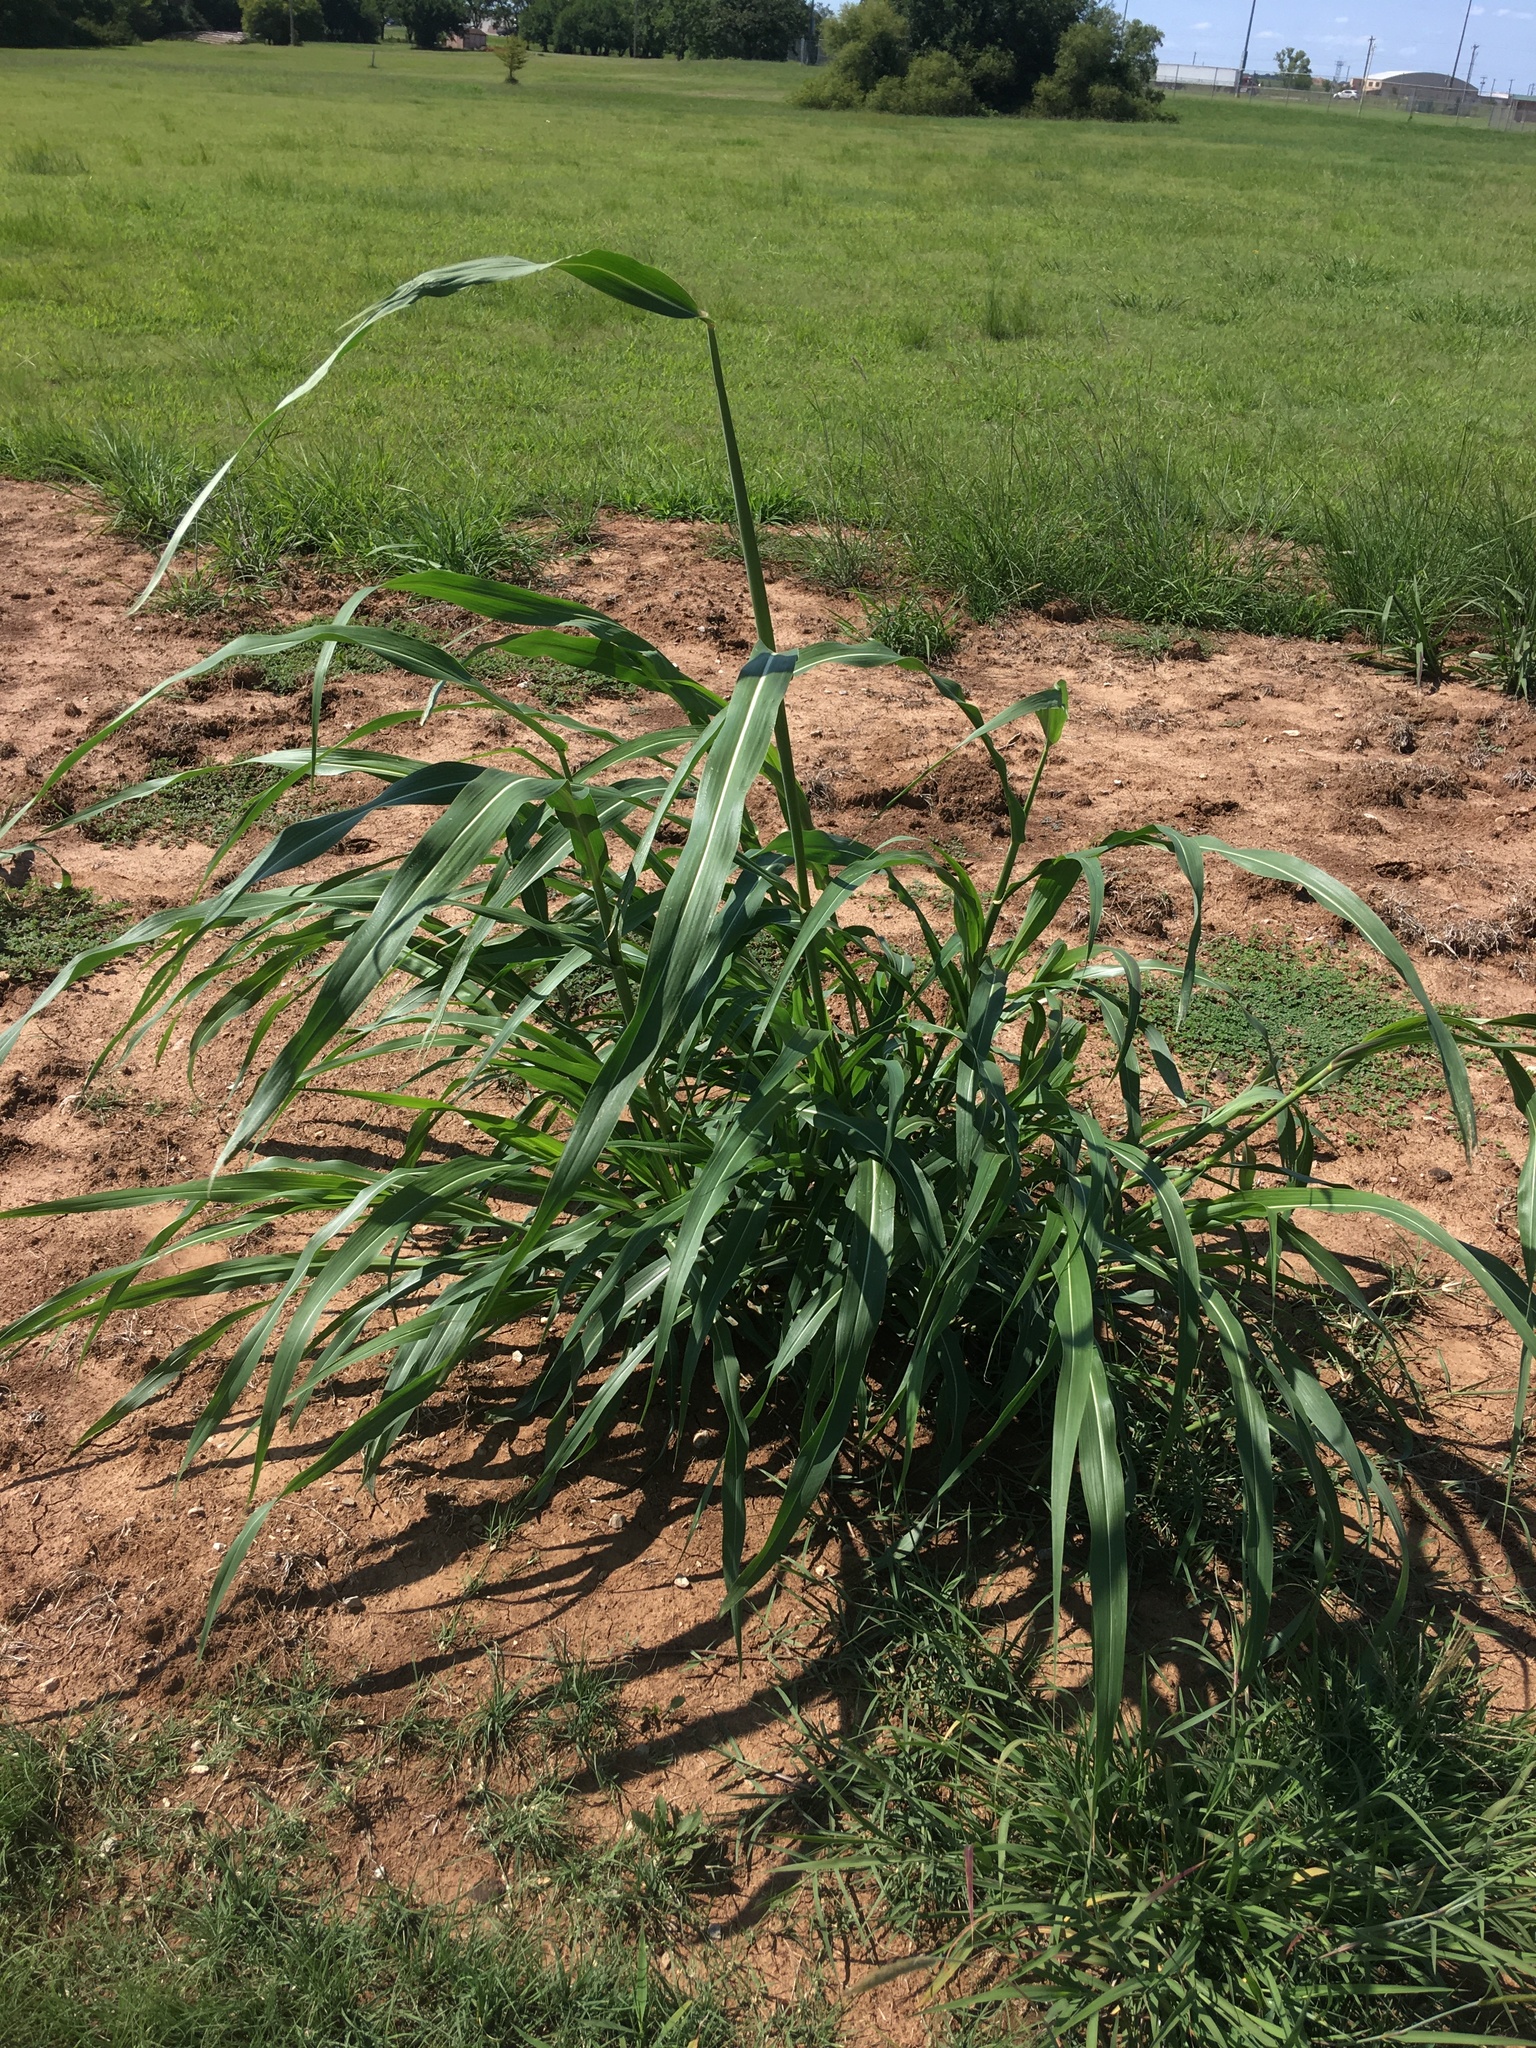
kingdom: Plantae
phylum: Tracheophyta
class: Liliopsida
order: Poales
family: Poaceae
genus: Sorghum
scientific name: Sorghum halepense
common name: Johnson-grass
